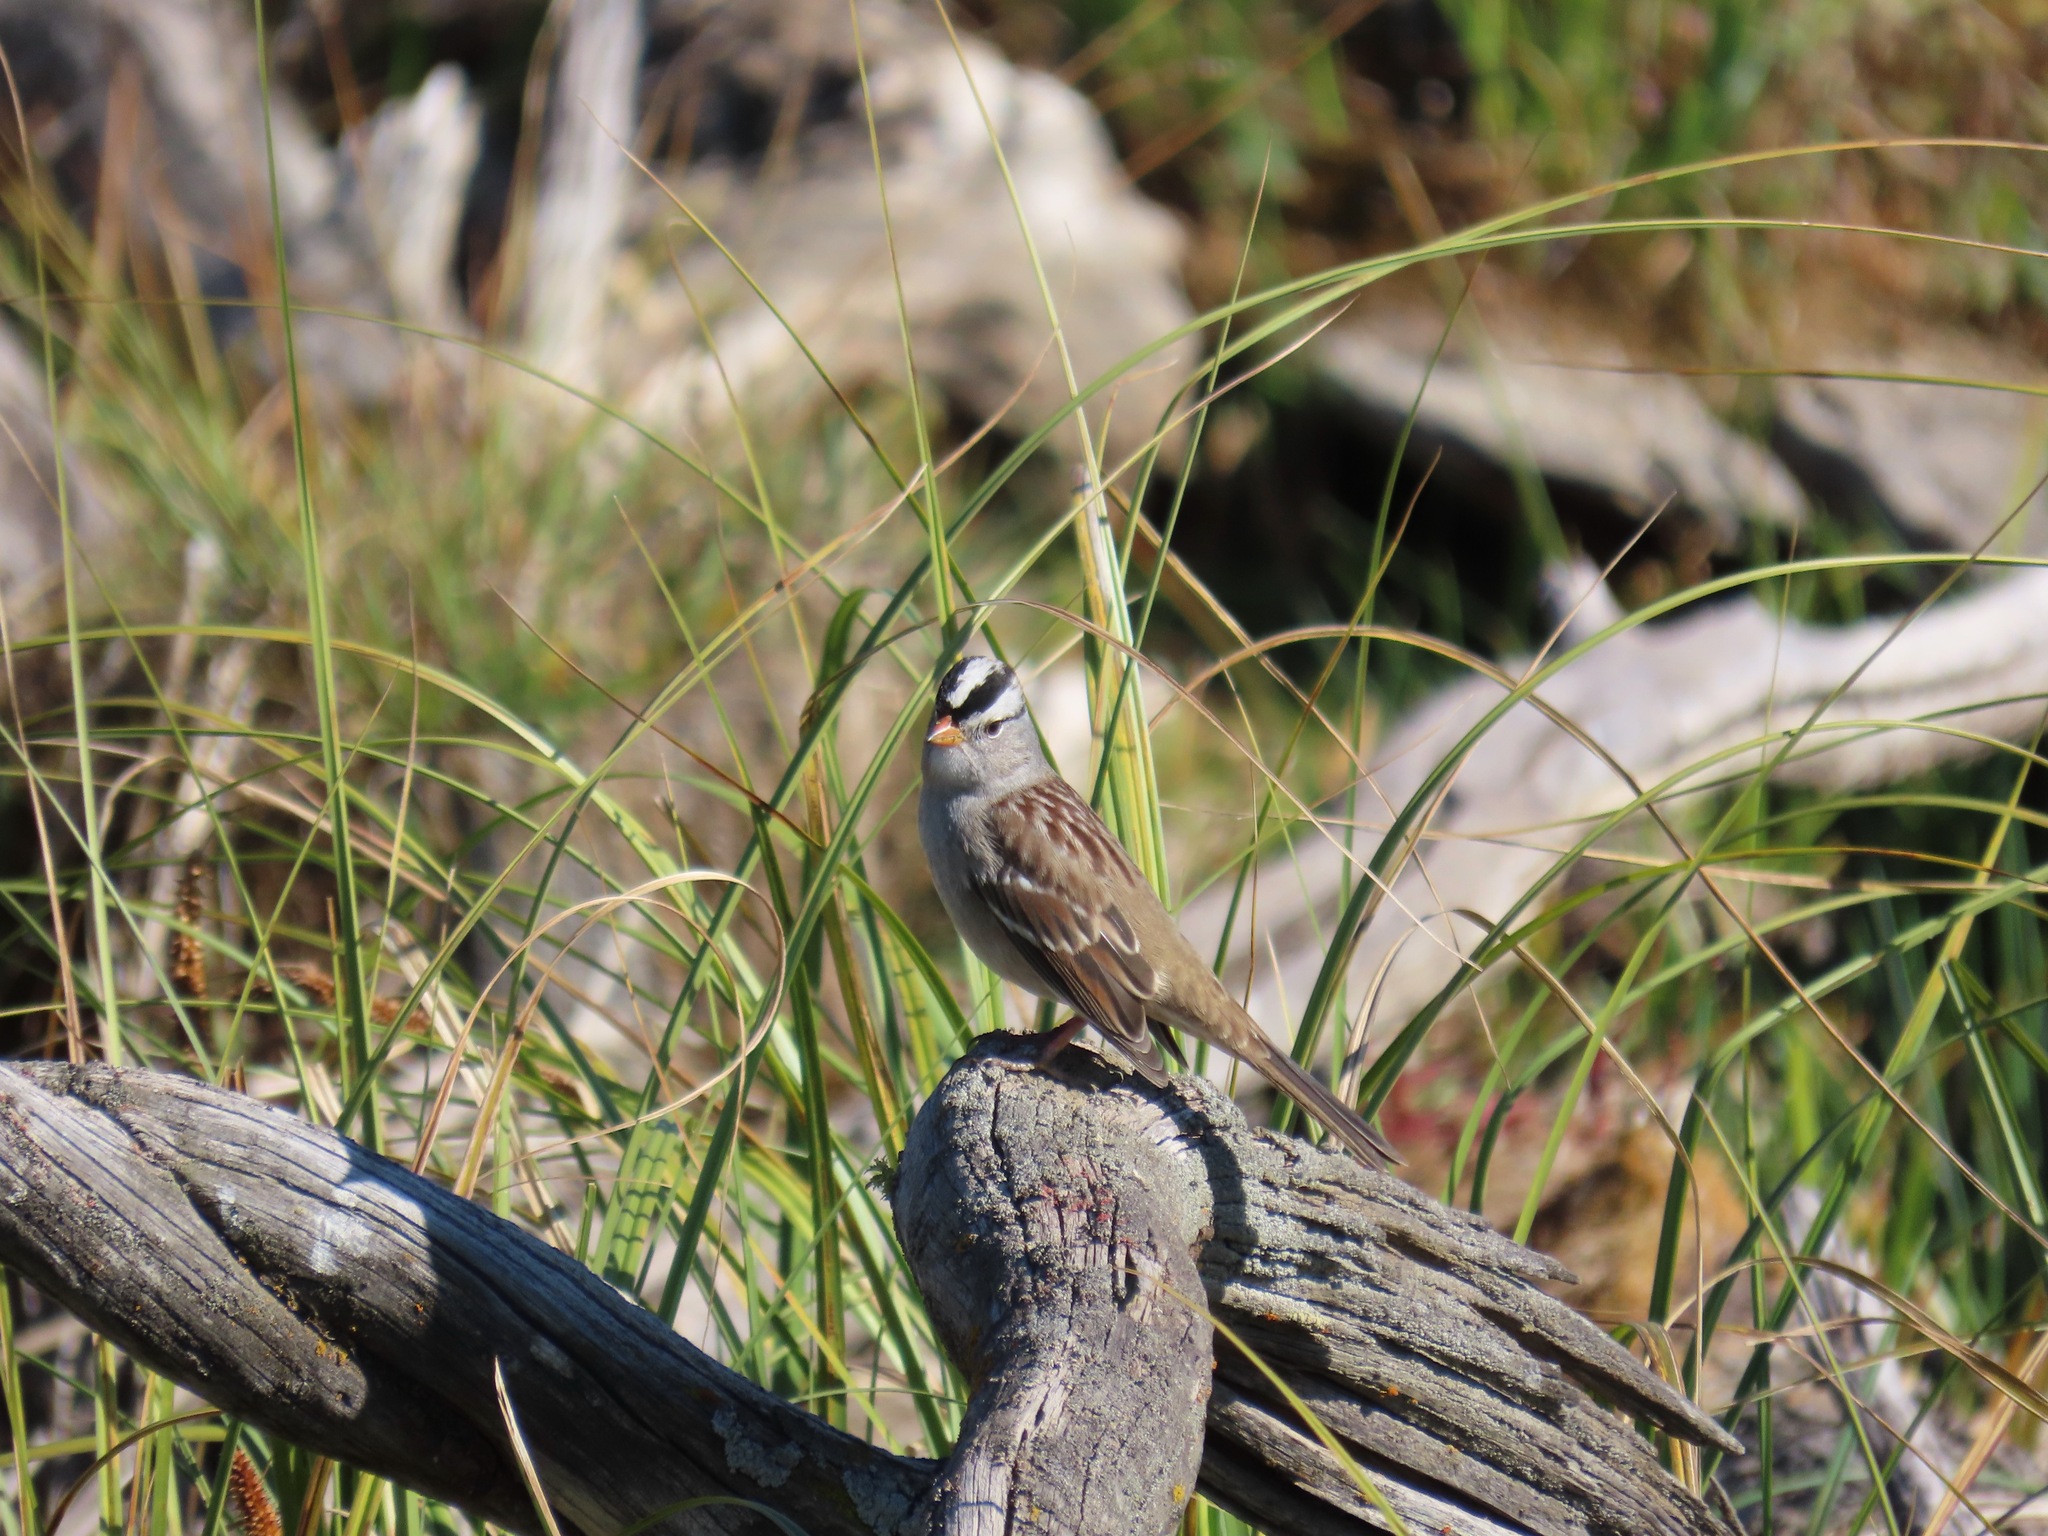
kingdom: Animalia
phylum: Chordata
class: Aves
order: Passeriformes
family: Passerellidae
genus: Zonotrichia
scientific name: Zonotrichia leucophrys
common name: White-crowned sparrow
